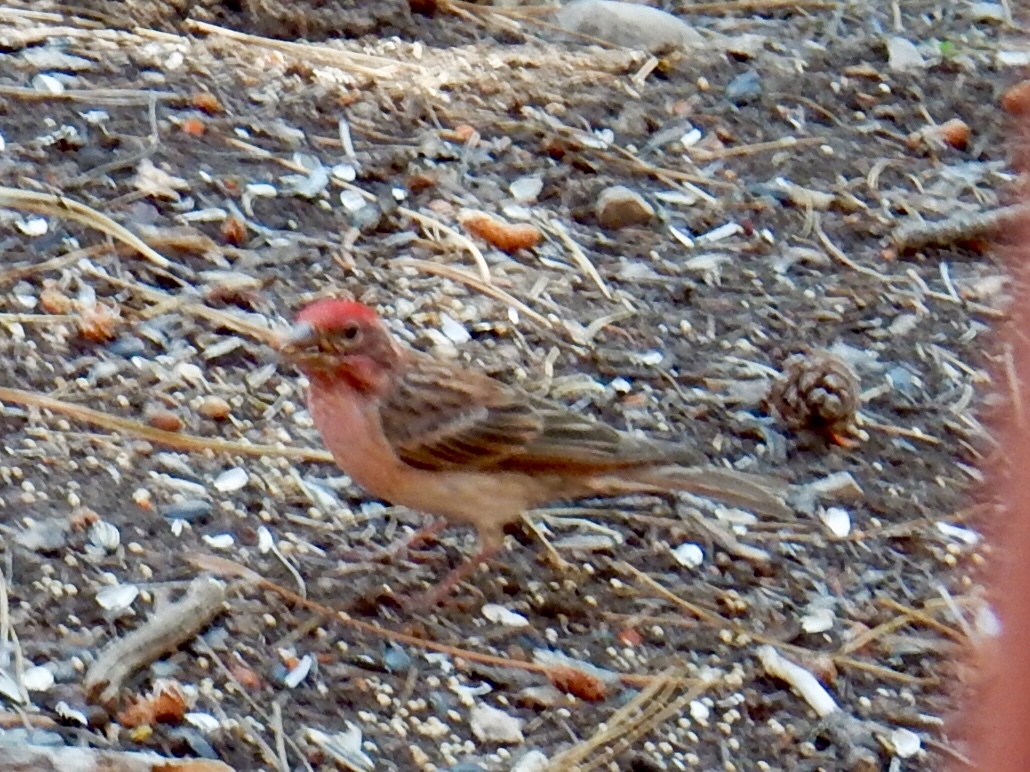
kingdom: Animalia
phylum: Chordata
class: Aves
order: Passeriformes
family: Fringillidae
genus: Haemorhous
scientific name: Haemorhous cassinii
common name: Cassin's finch
